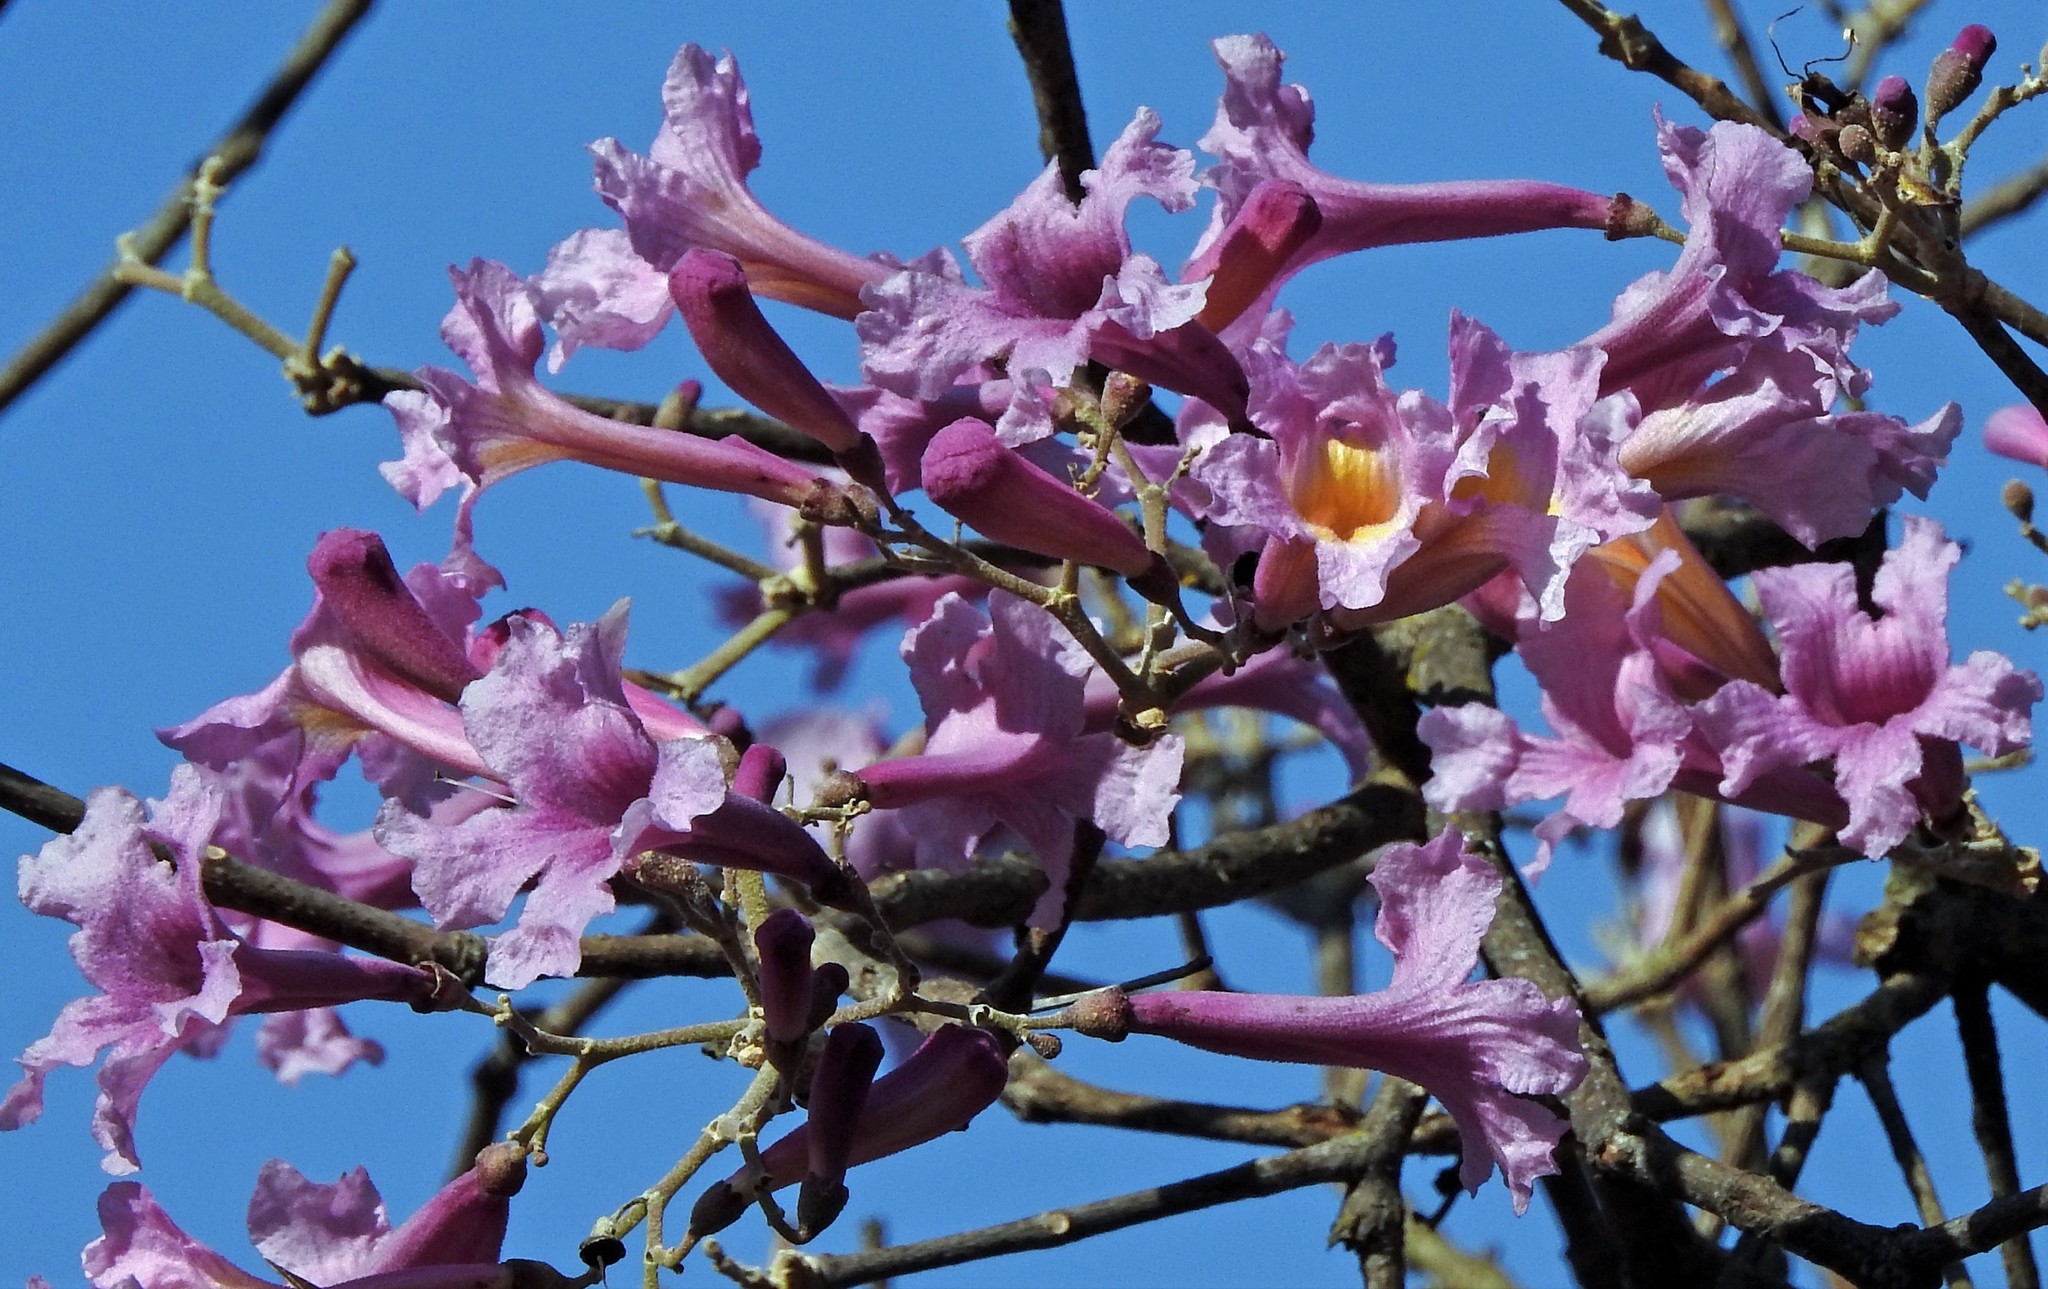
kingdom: Plantae
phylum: Tracheophyta
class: Magnoliopsida
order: Lamiales
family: Bignoniaceae
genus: Handroanthus
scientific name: Handroanthus impetiginosum
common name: Pink trumpet tree
